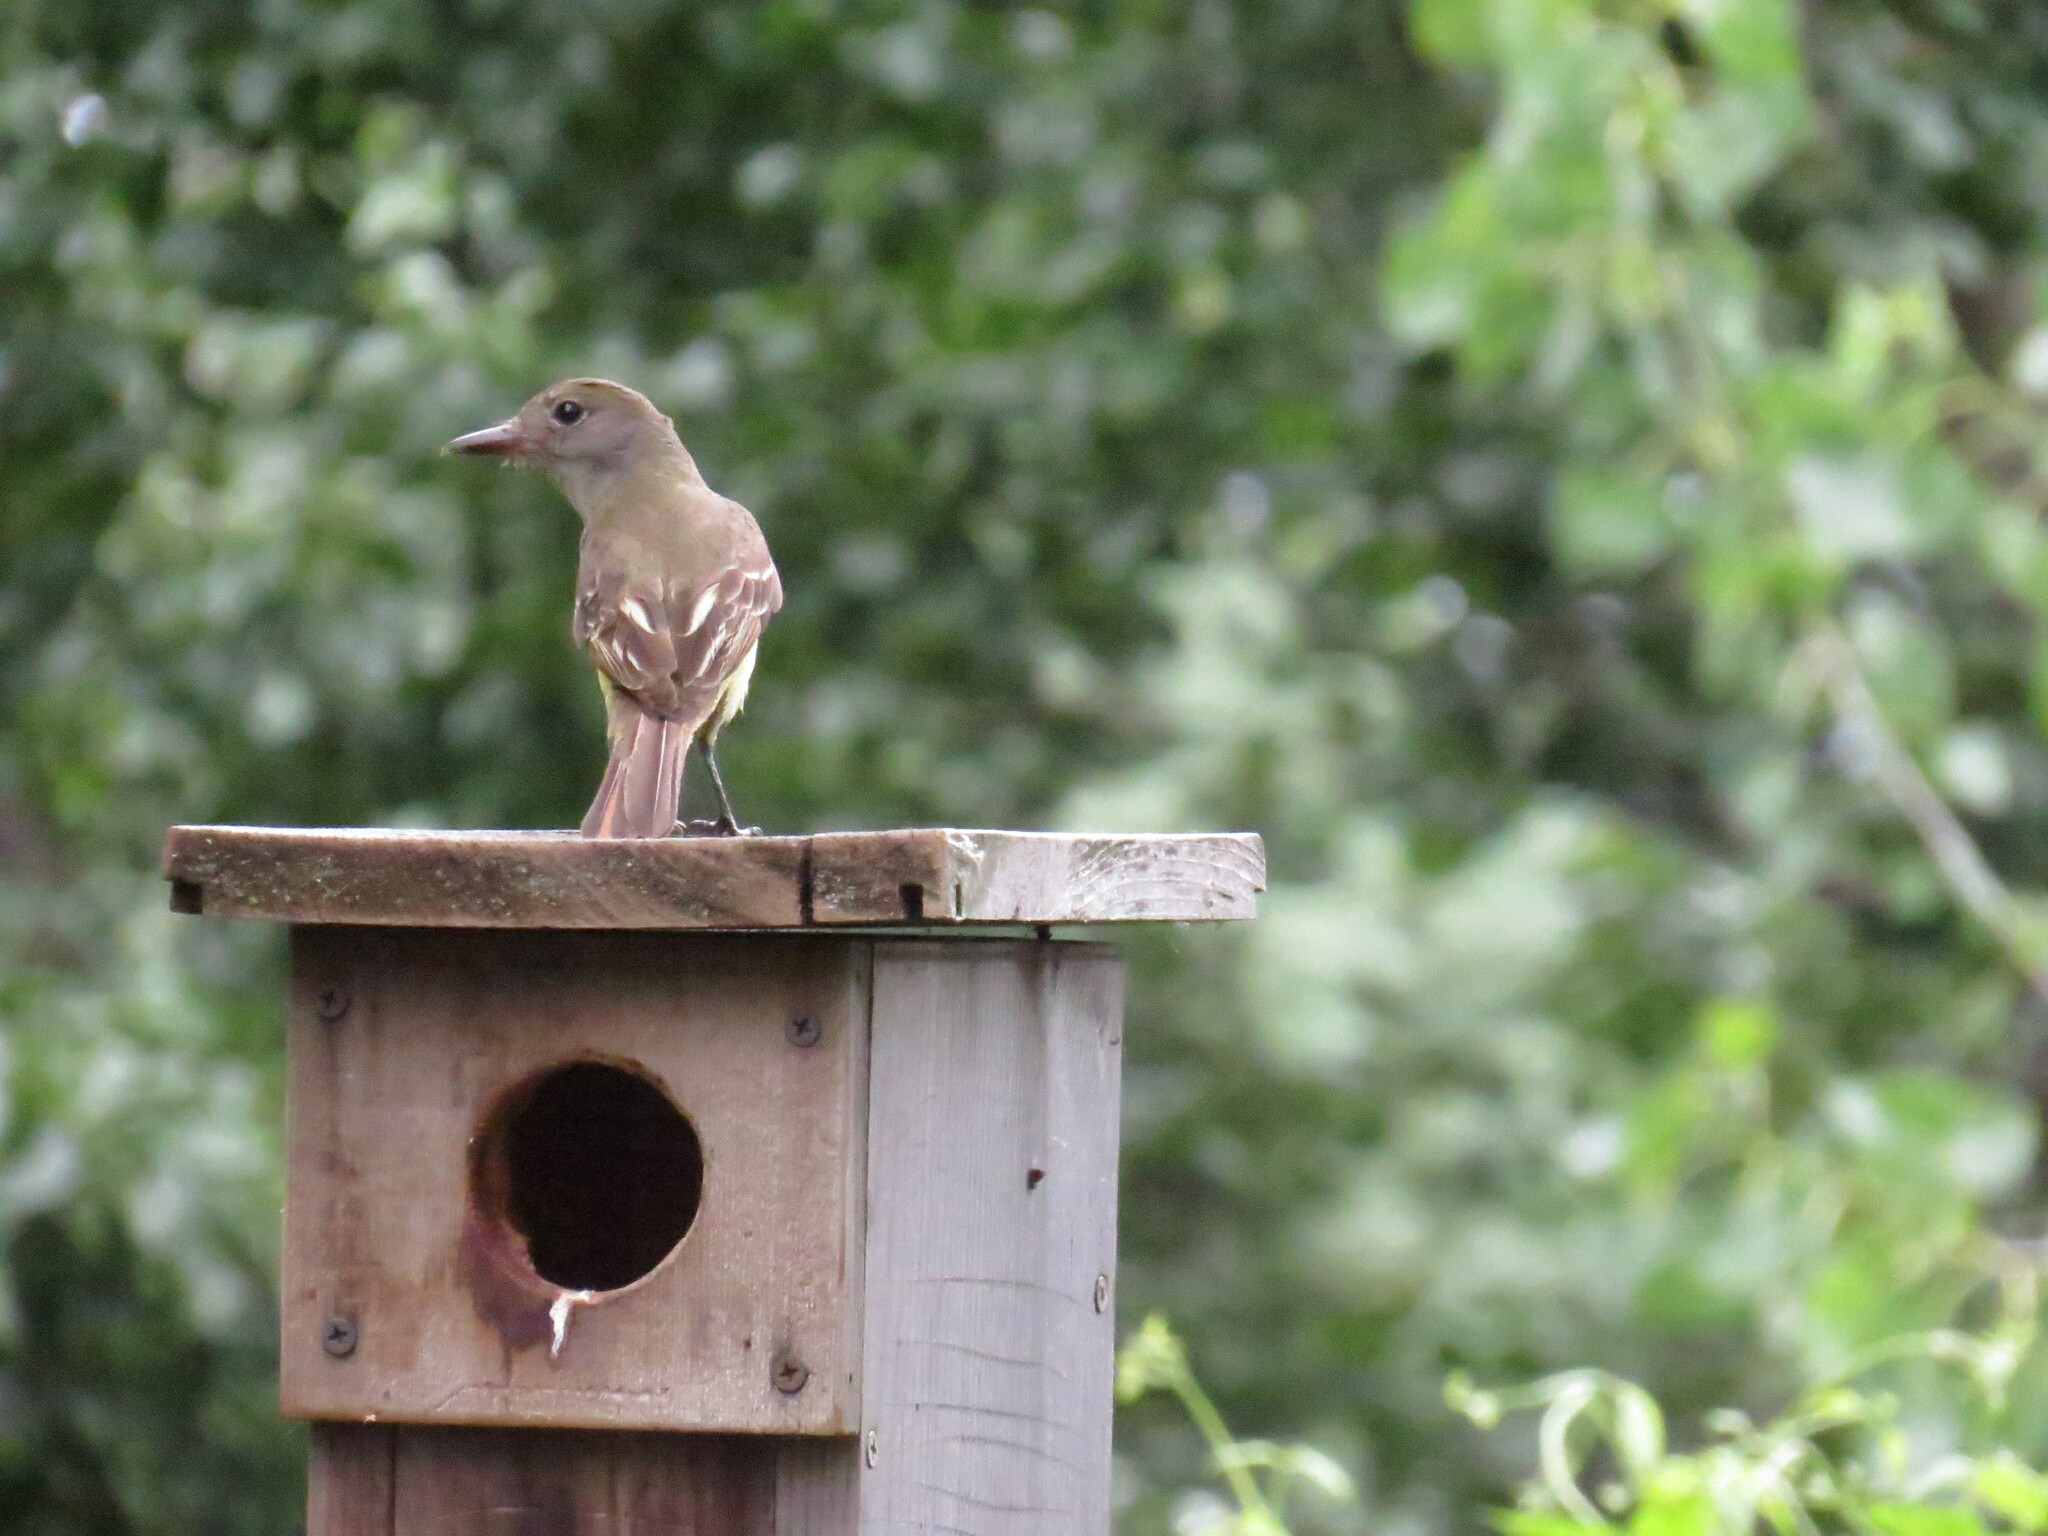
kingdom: Animalia
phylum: Chordata
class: Aves
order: Passeriformes
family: Tyrannidae
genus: Myiarchus
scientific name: Myiarchus crinitus
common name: Great crested flycatcher
